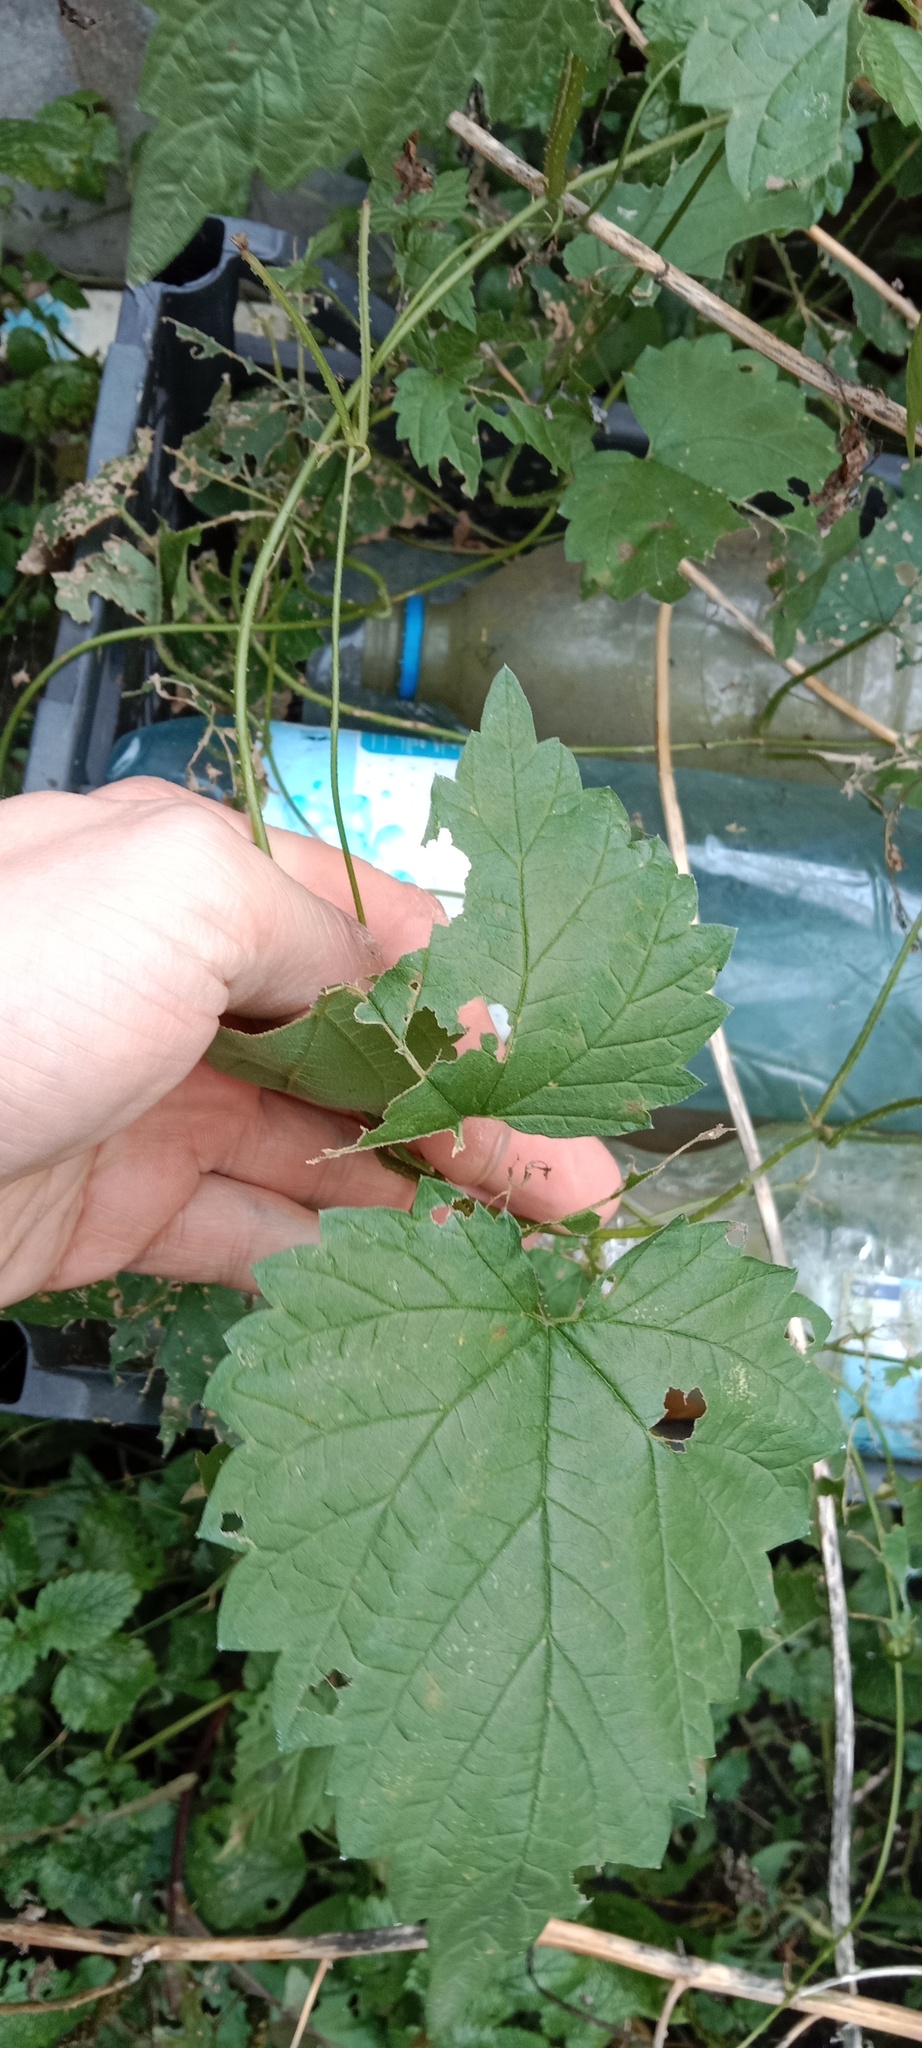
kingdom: Plantae
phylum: Tracheophyta
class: Magnoliopsida
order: Vitales
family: Vitaceae
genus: Vitis
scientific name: Vitis vinifera
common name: Grape-vine
